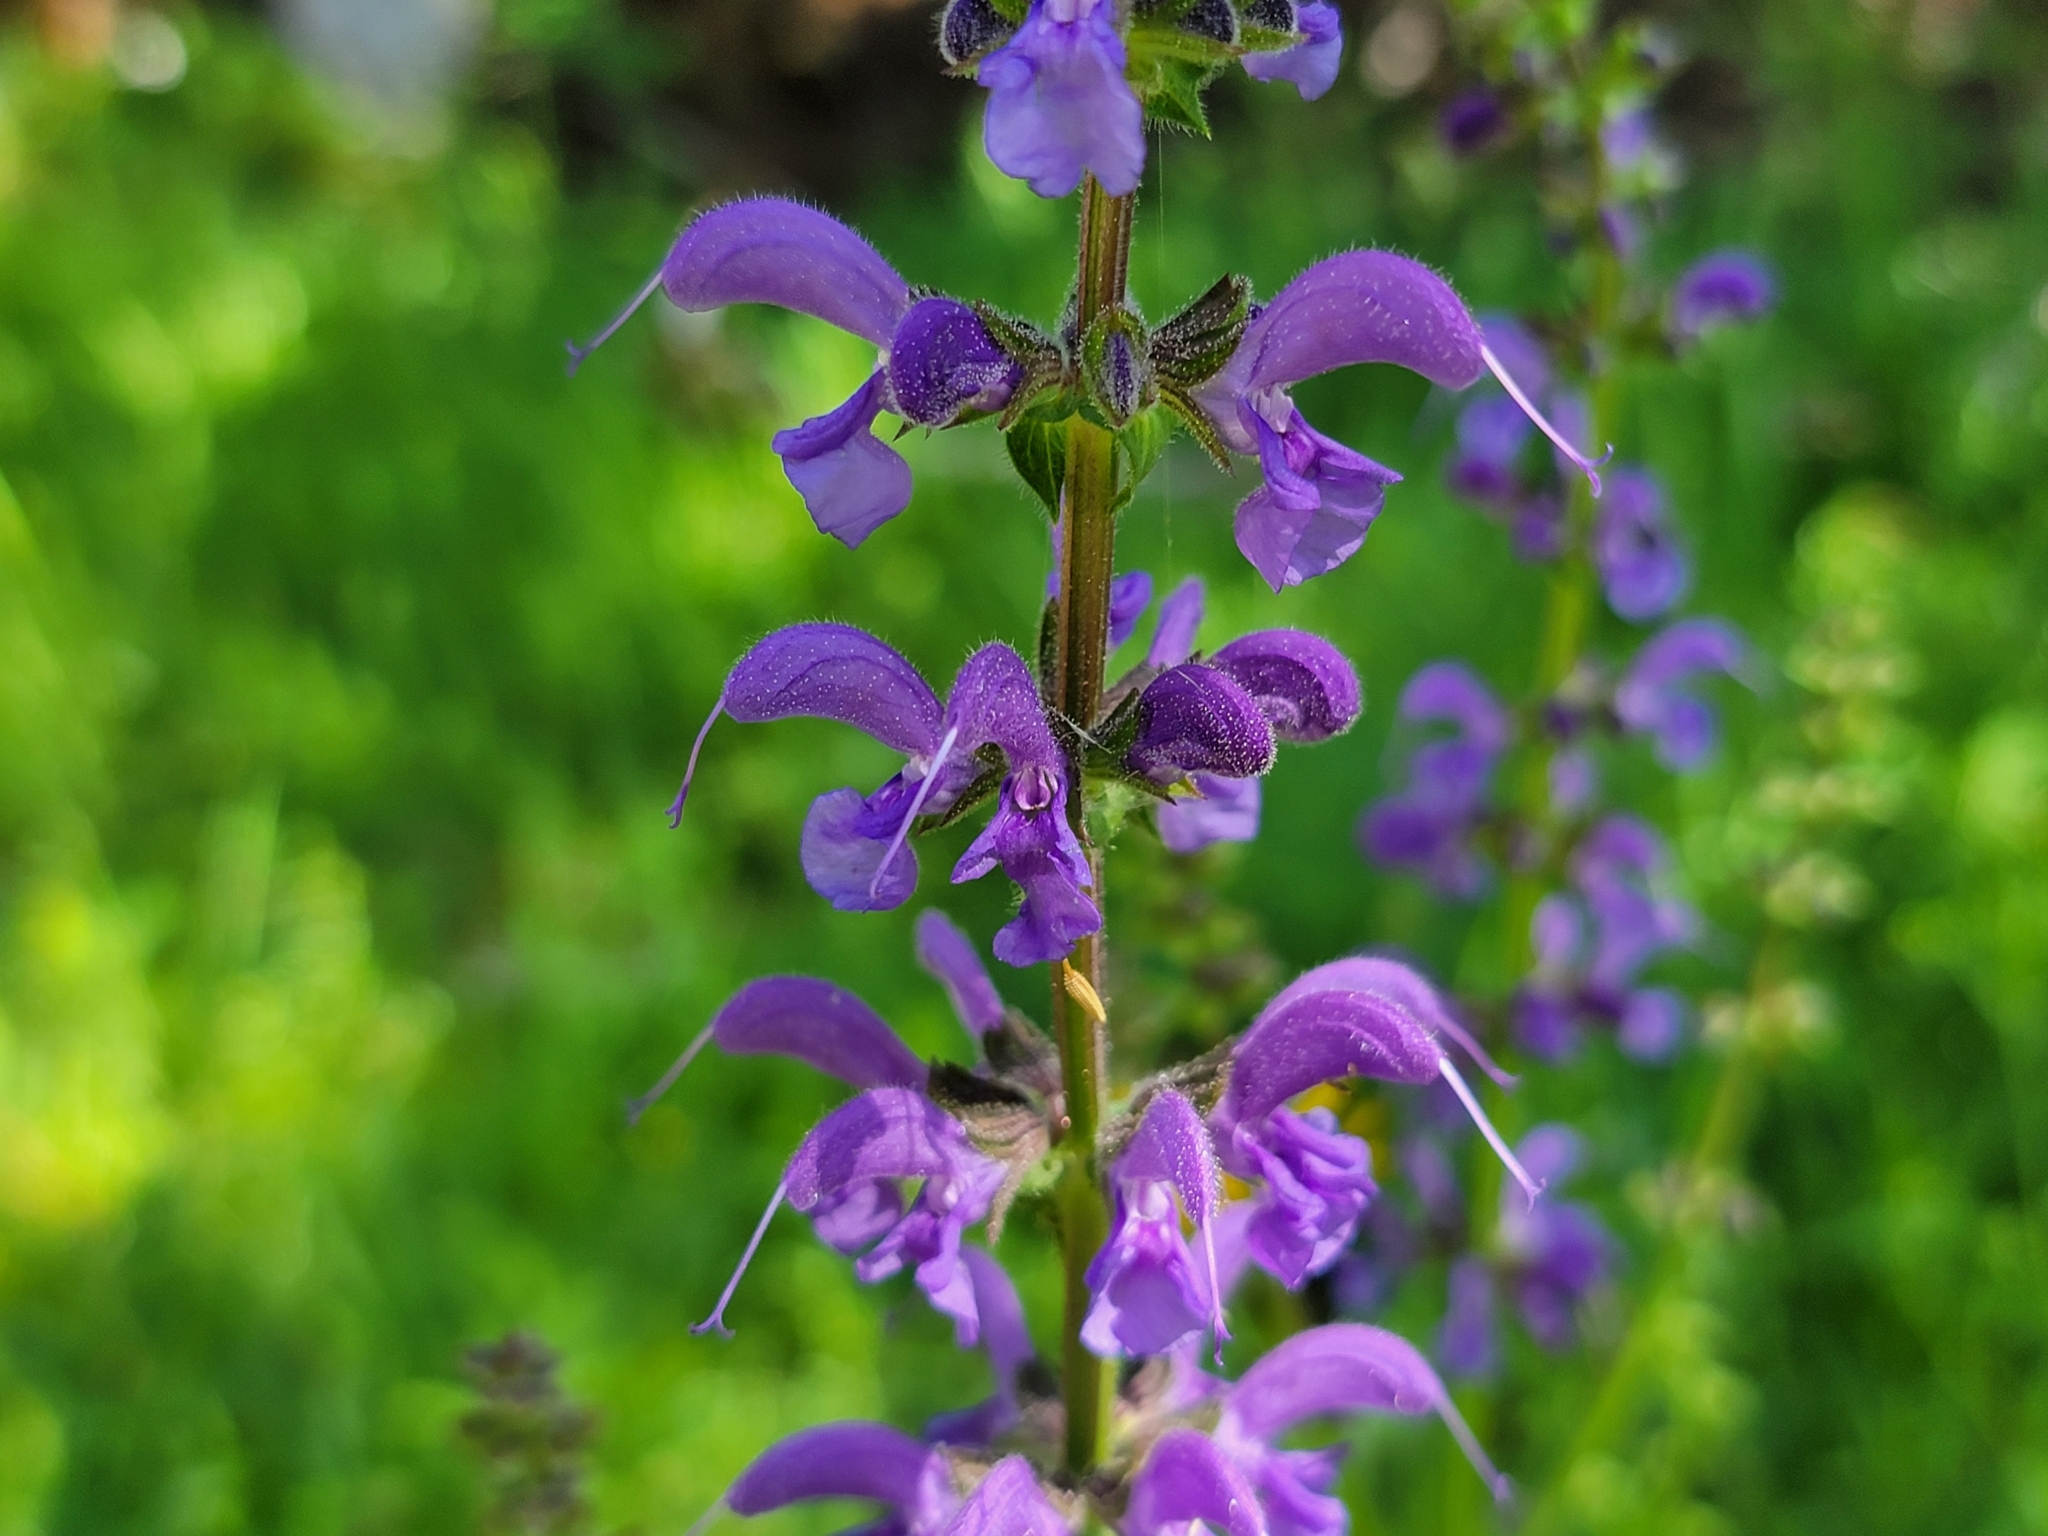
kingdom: Plantae
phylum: Tracheophyta
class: Magnoliopsida
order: Lamiales
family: Lamiaceae
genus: Salvia
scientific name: Salvia pratensis
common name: Meadow sage
